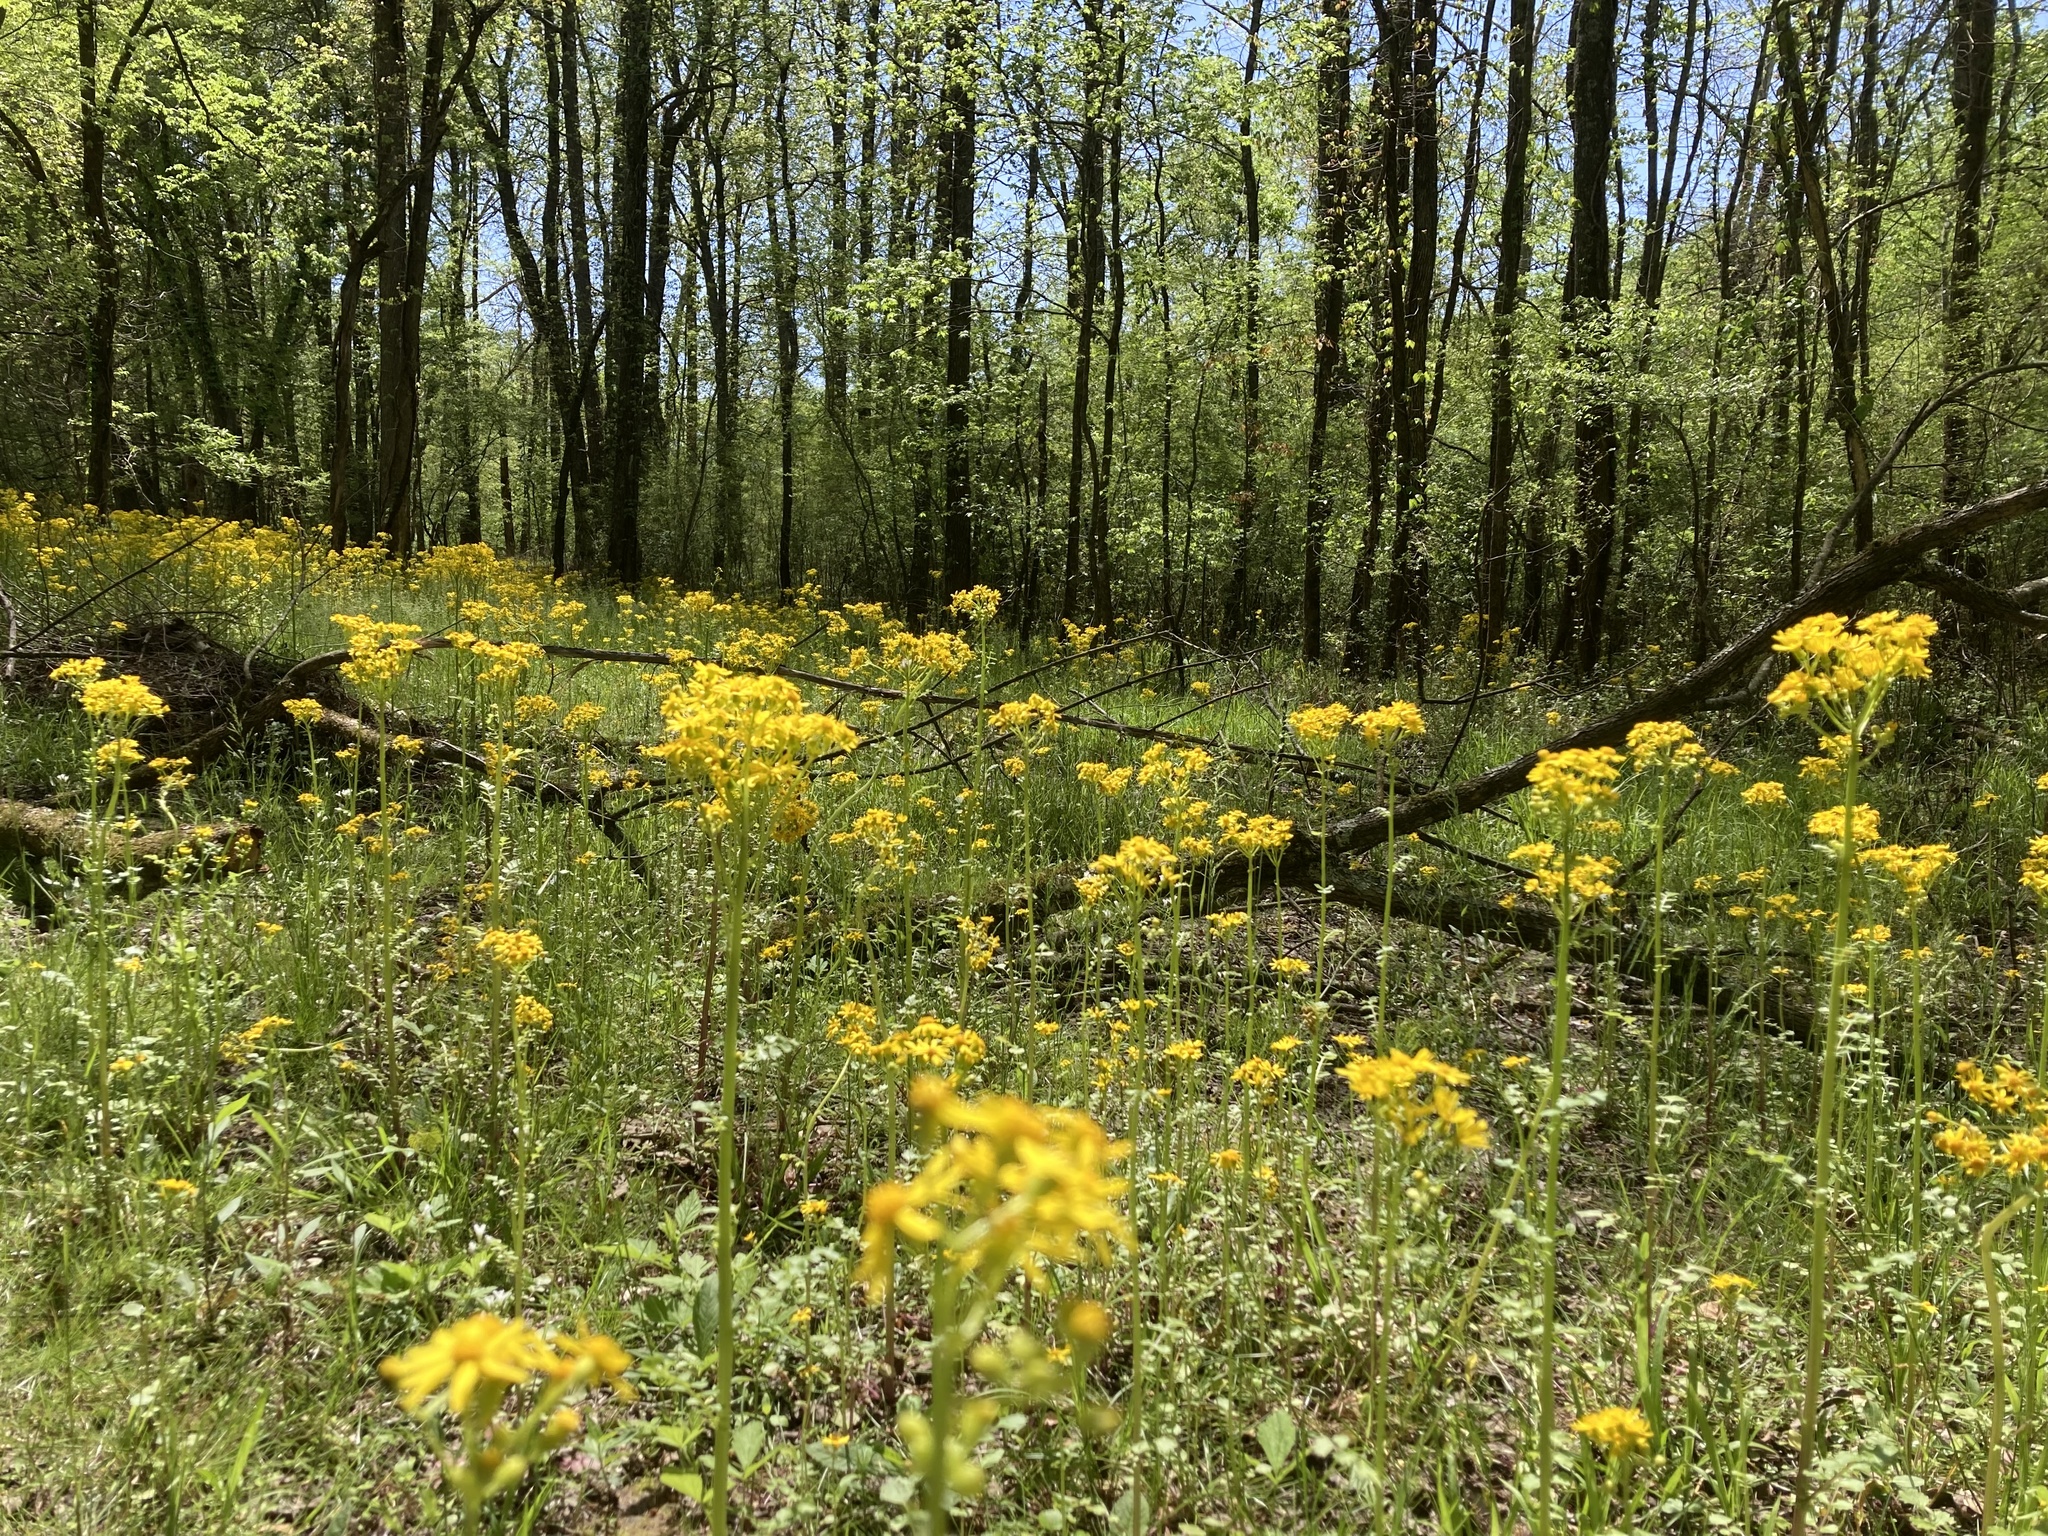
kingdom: Plantae
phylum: Tracheophyta
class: Magnoliopsida
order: Asterales
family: Asteraceae
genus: Packera
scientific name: Packera glabella
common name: Butterweed
